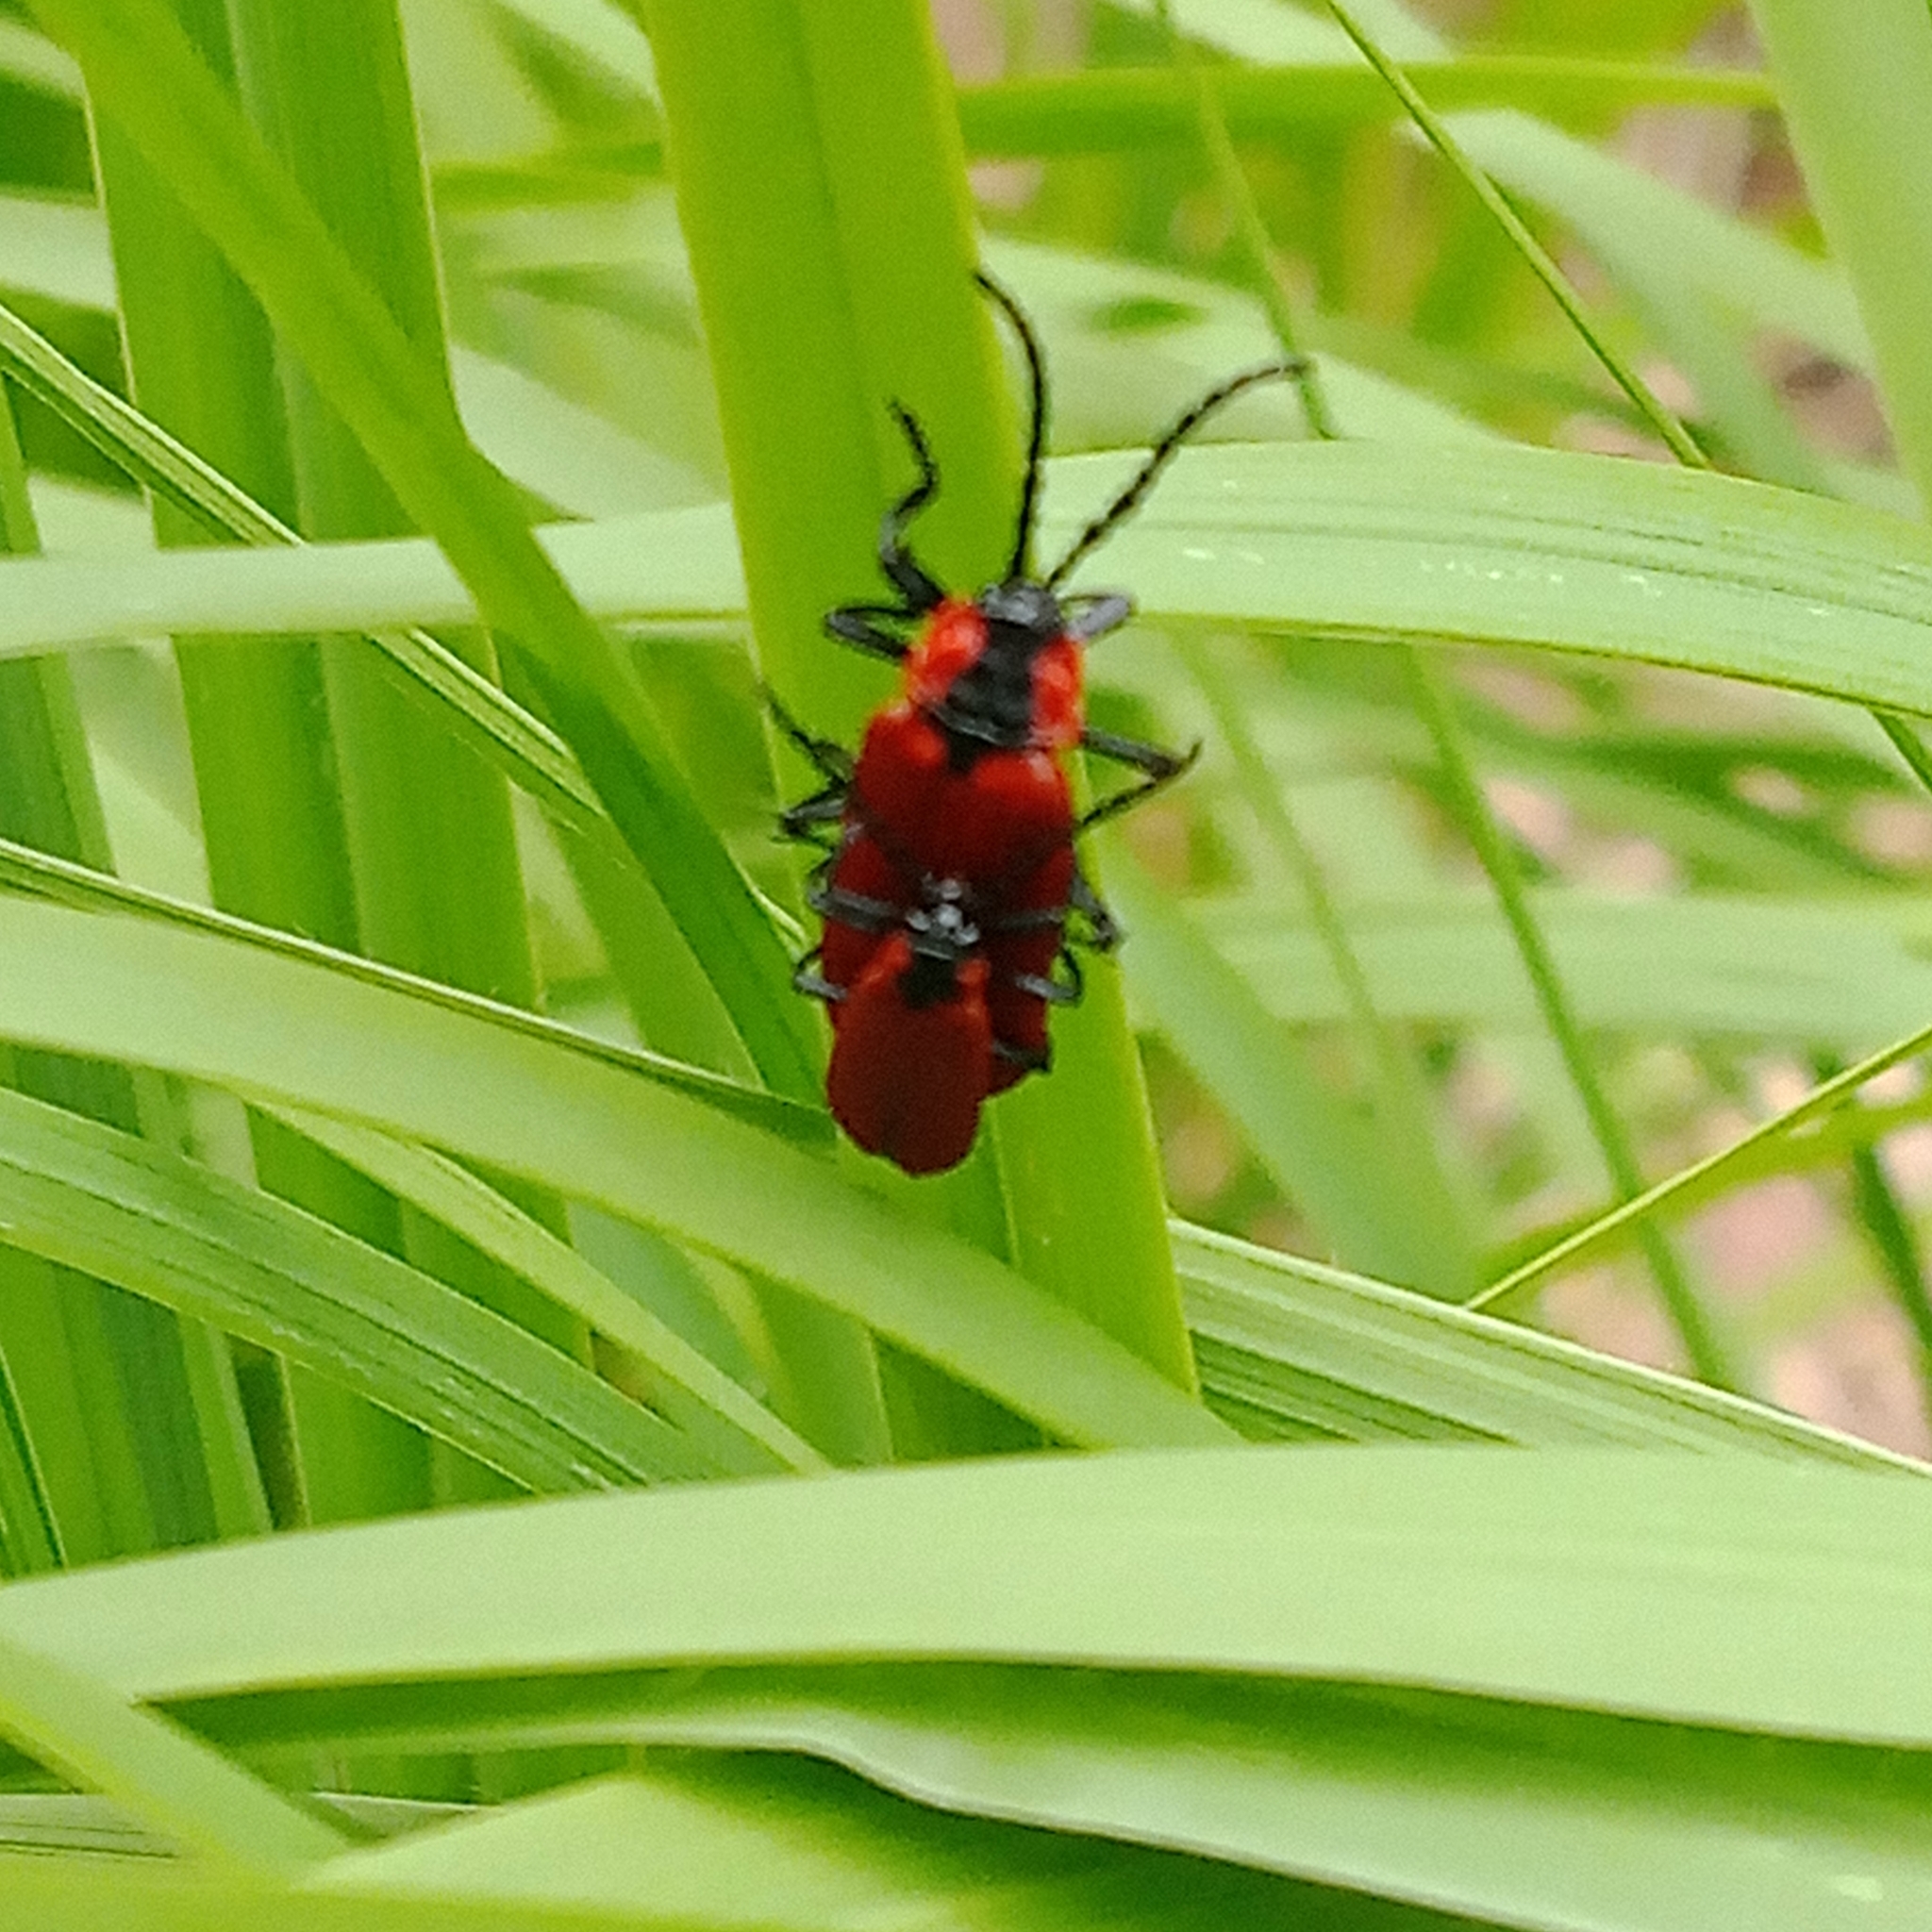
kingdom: Animalia
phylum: Arthropoda
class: Insecta
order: Coleoptera
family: Lycidae
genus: Lygistopterus
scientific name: Lygistopterus sanguineus
